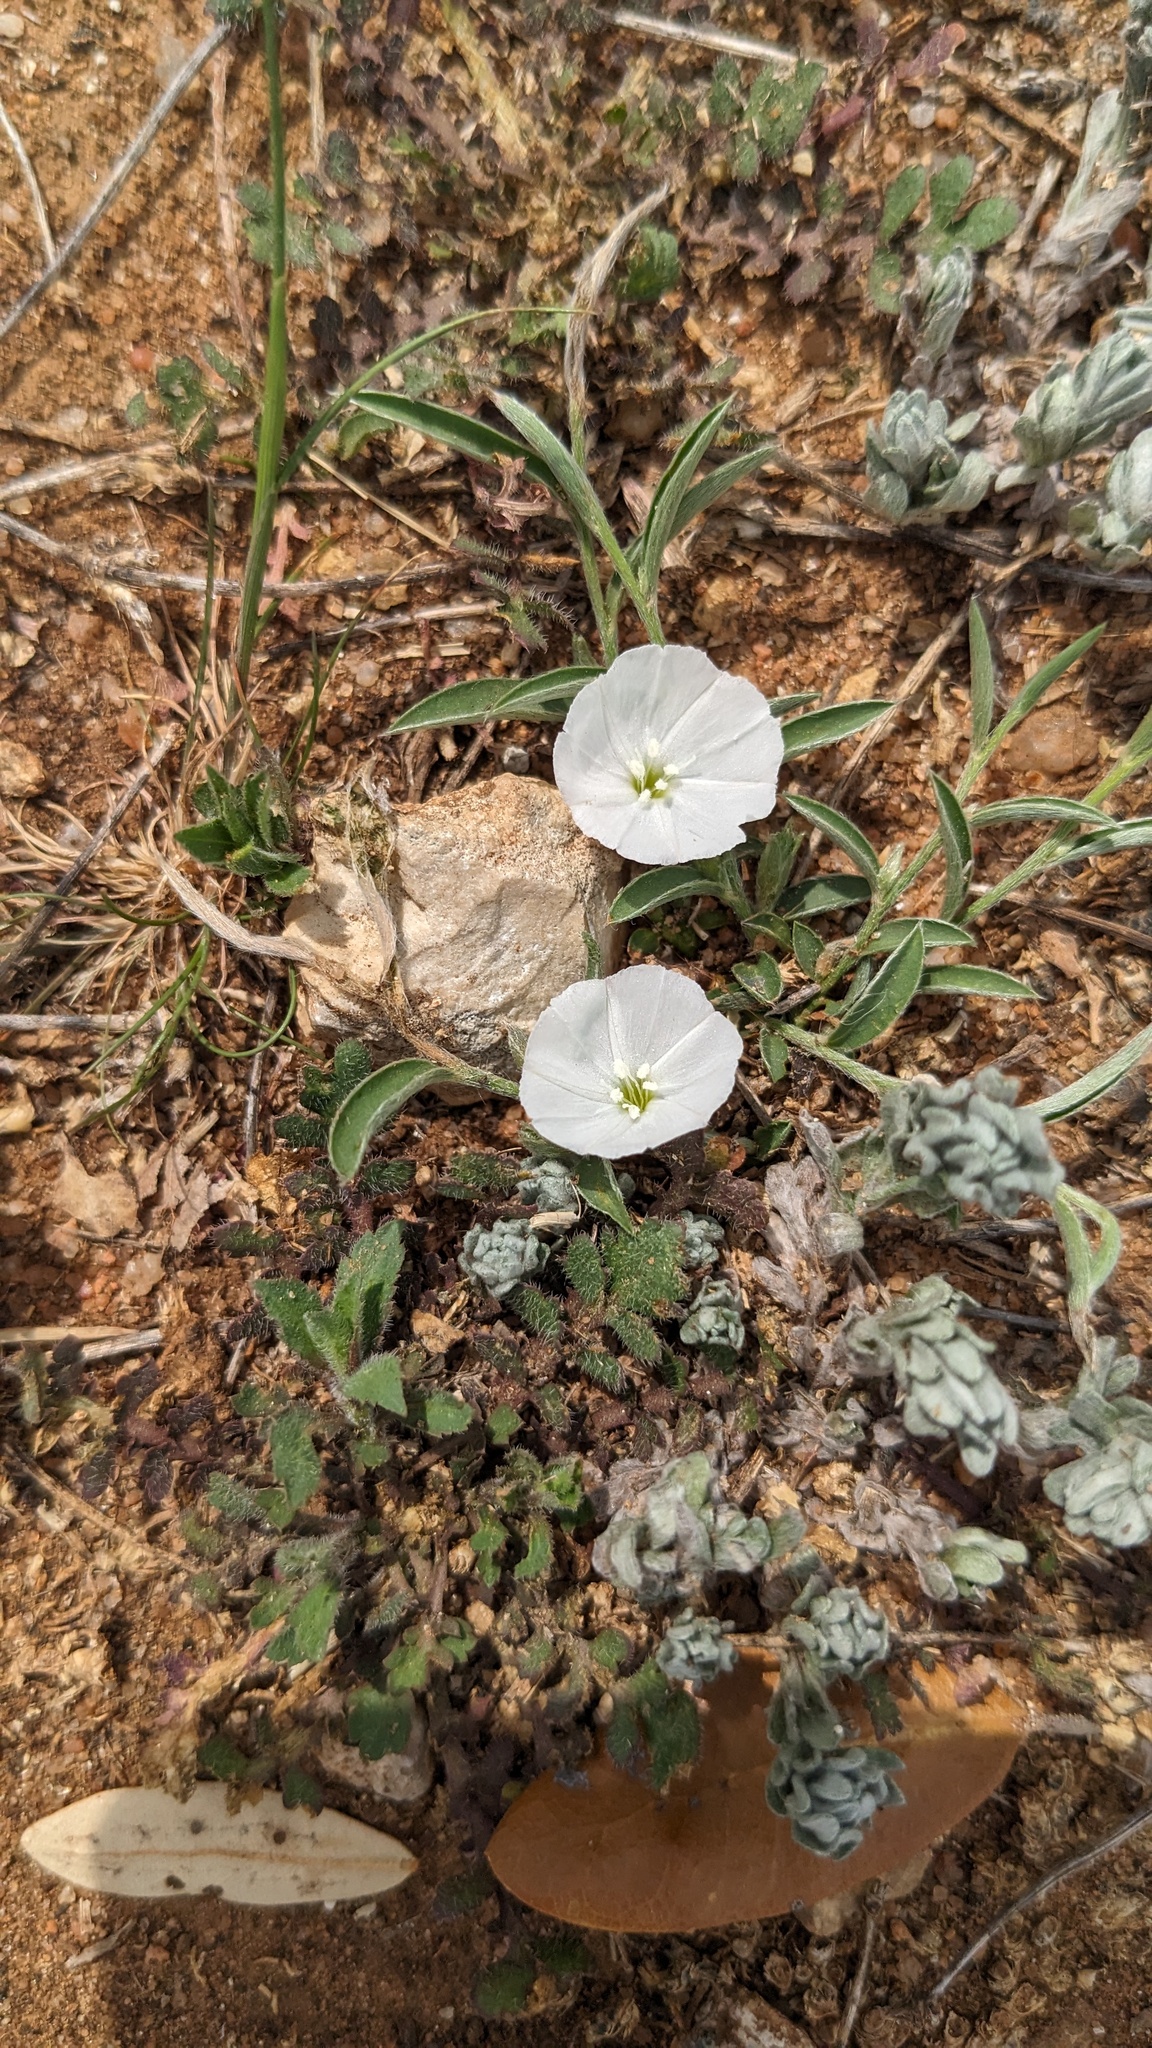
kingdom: Plantae
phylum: Tracheophyta
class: Magnoliopsida
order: Solanales
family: Convolvulaceae
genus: Evolvulus
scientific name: Evolvulus sericeus
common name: Blue dots
